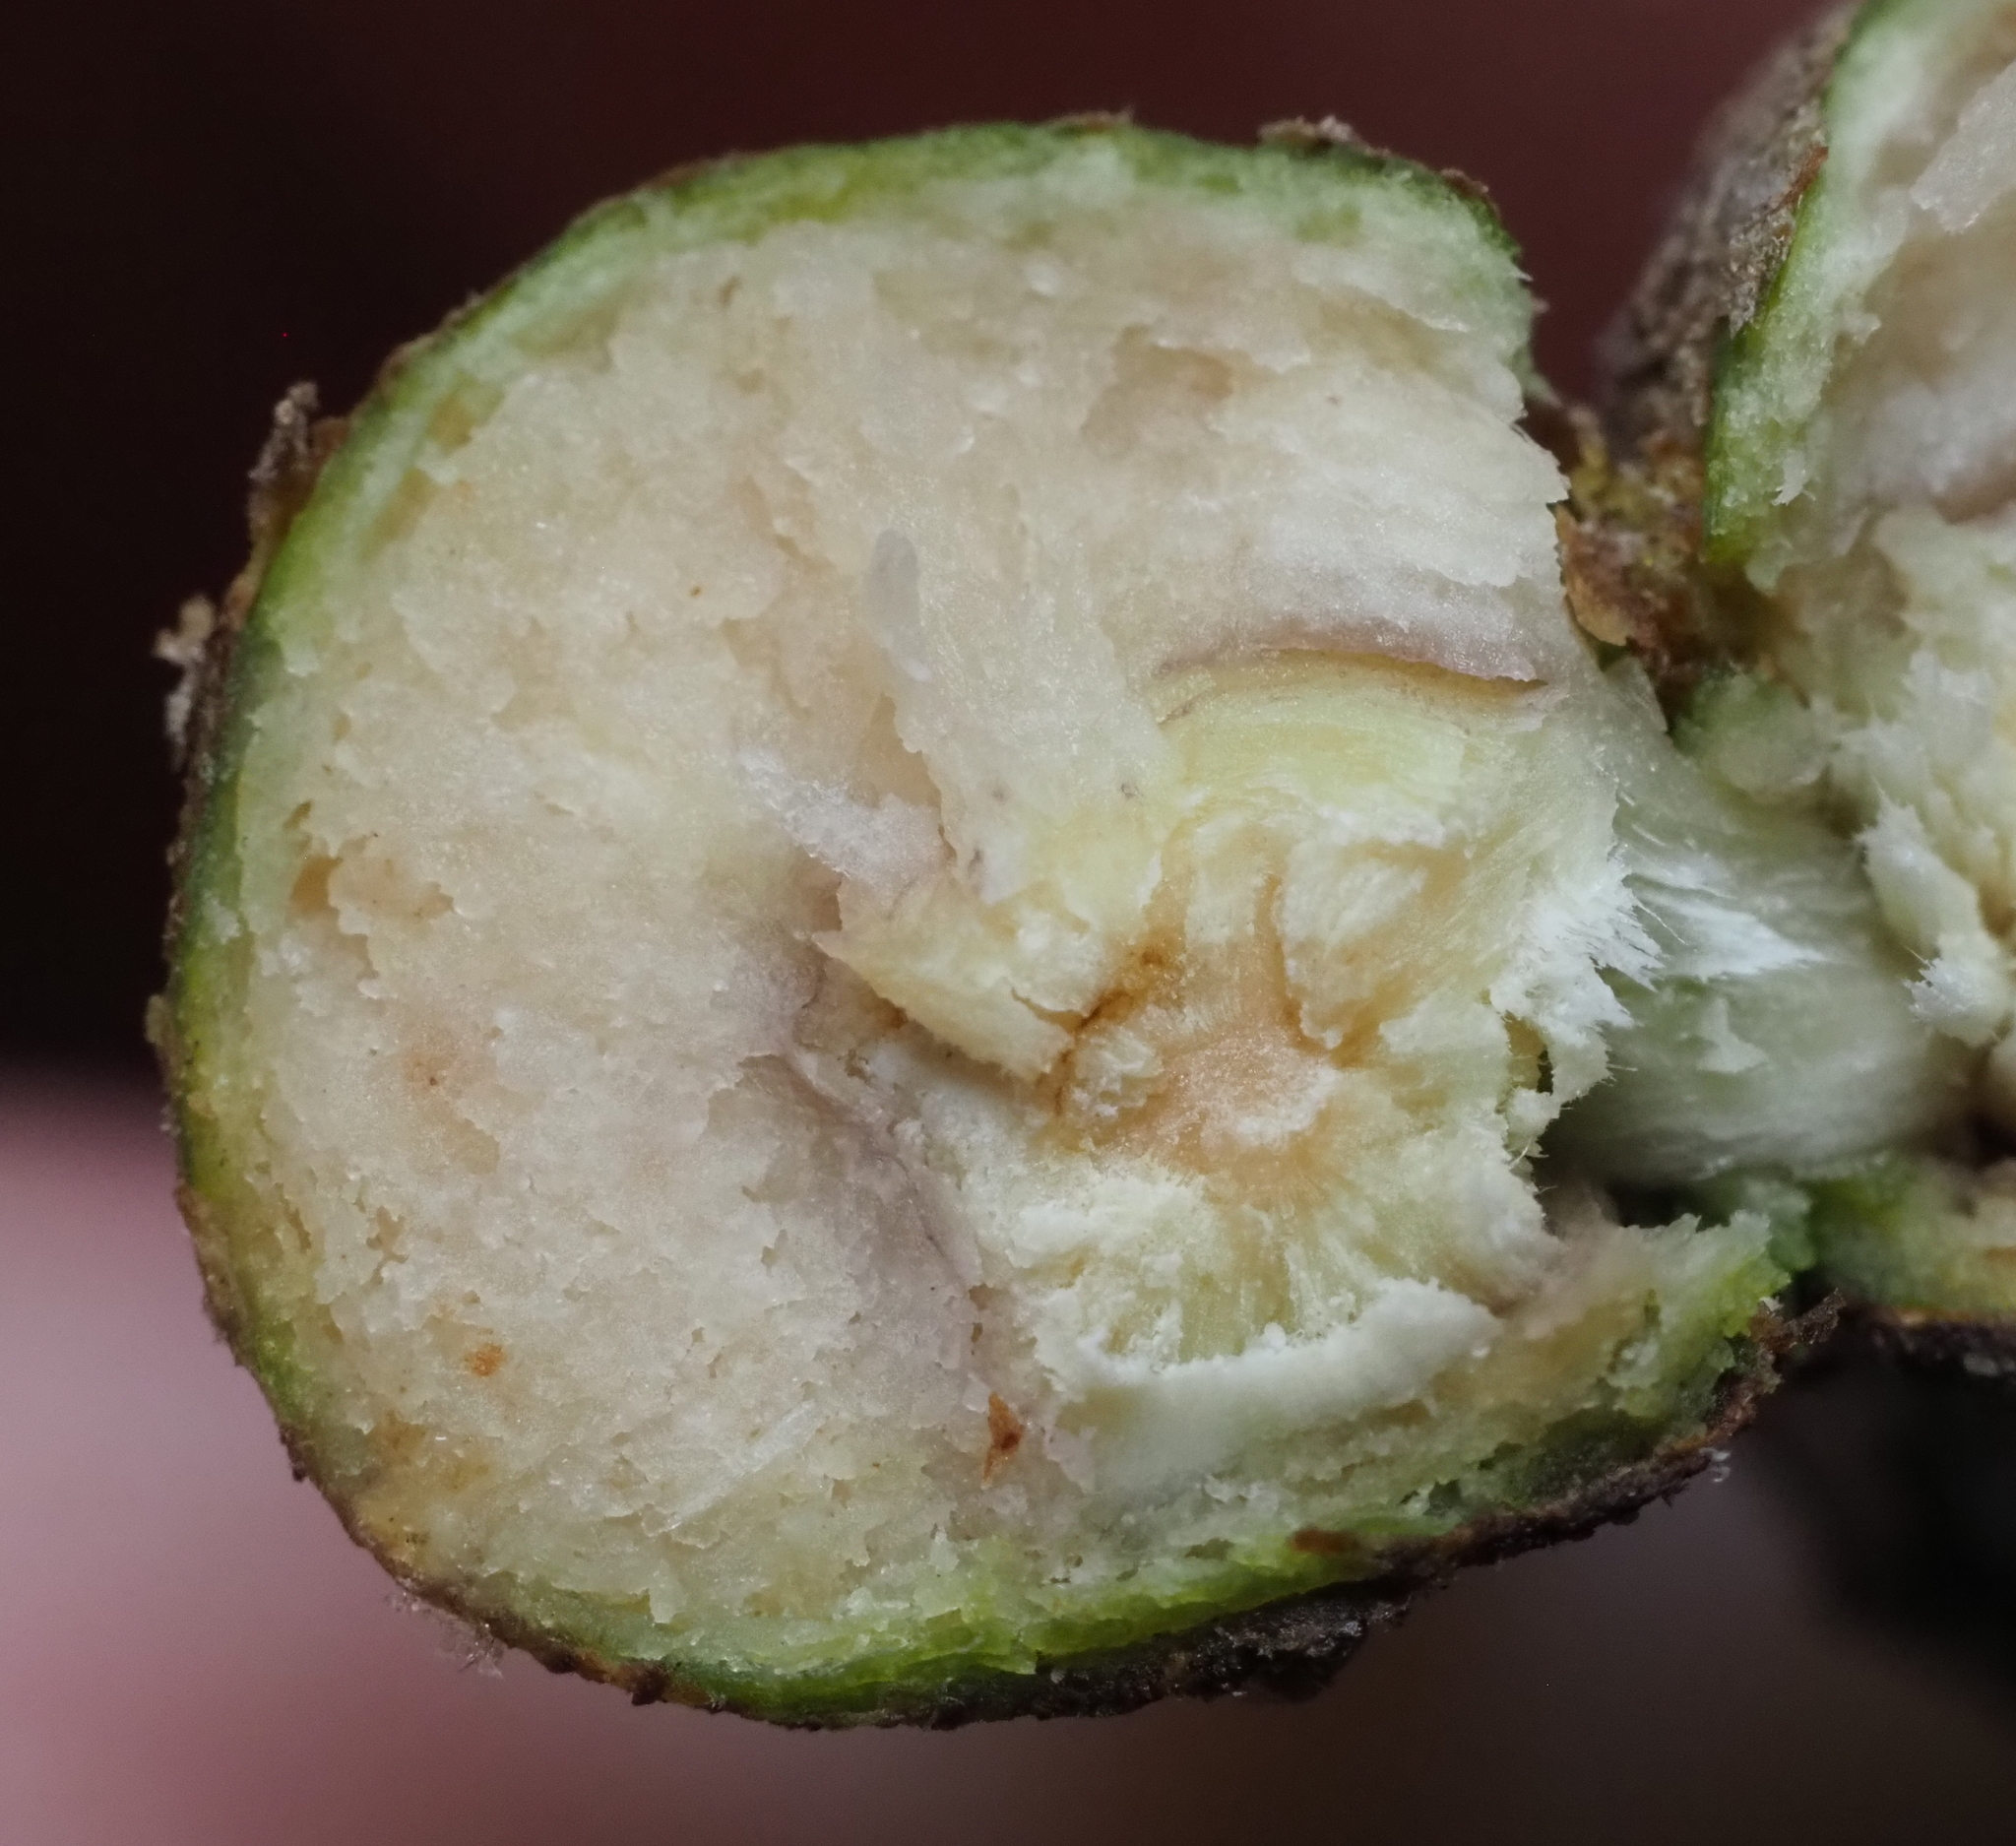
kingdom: Animalia
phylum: Arthropoda
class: Insecta
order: Hymenoptera
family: Cynipidae
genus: Callirhytis
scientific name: Callirhytis
